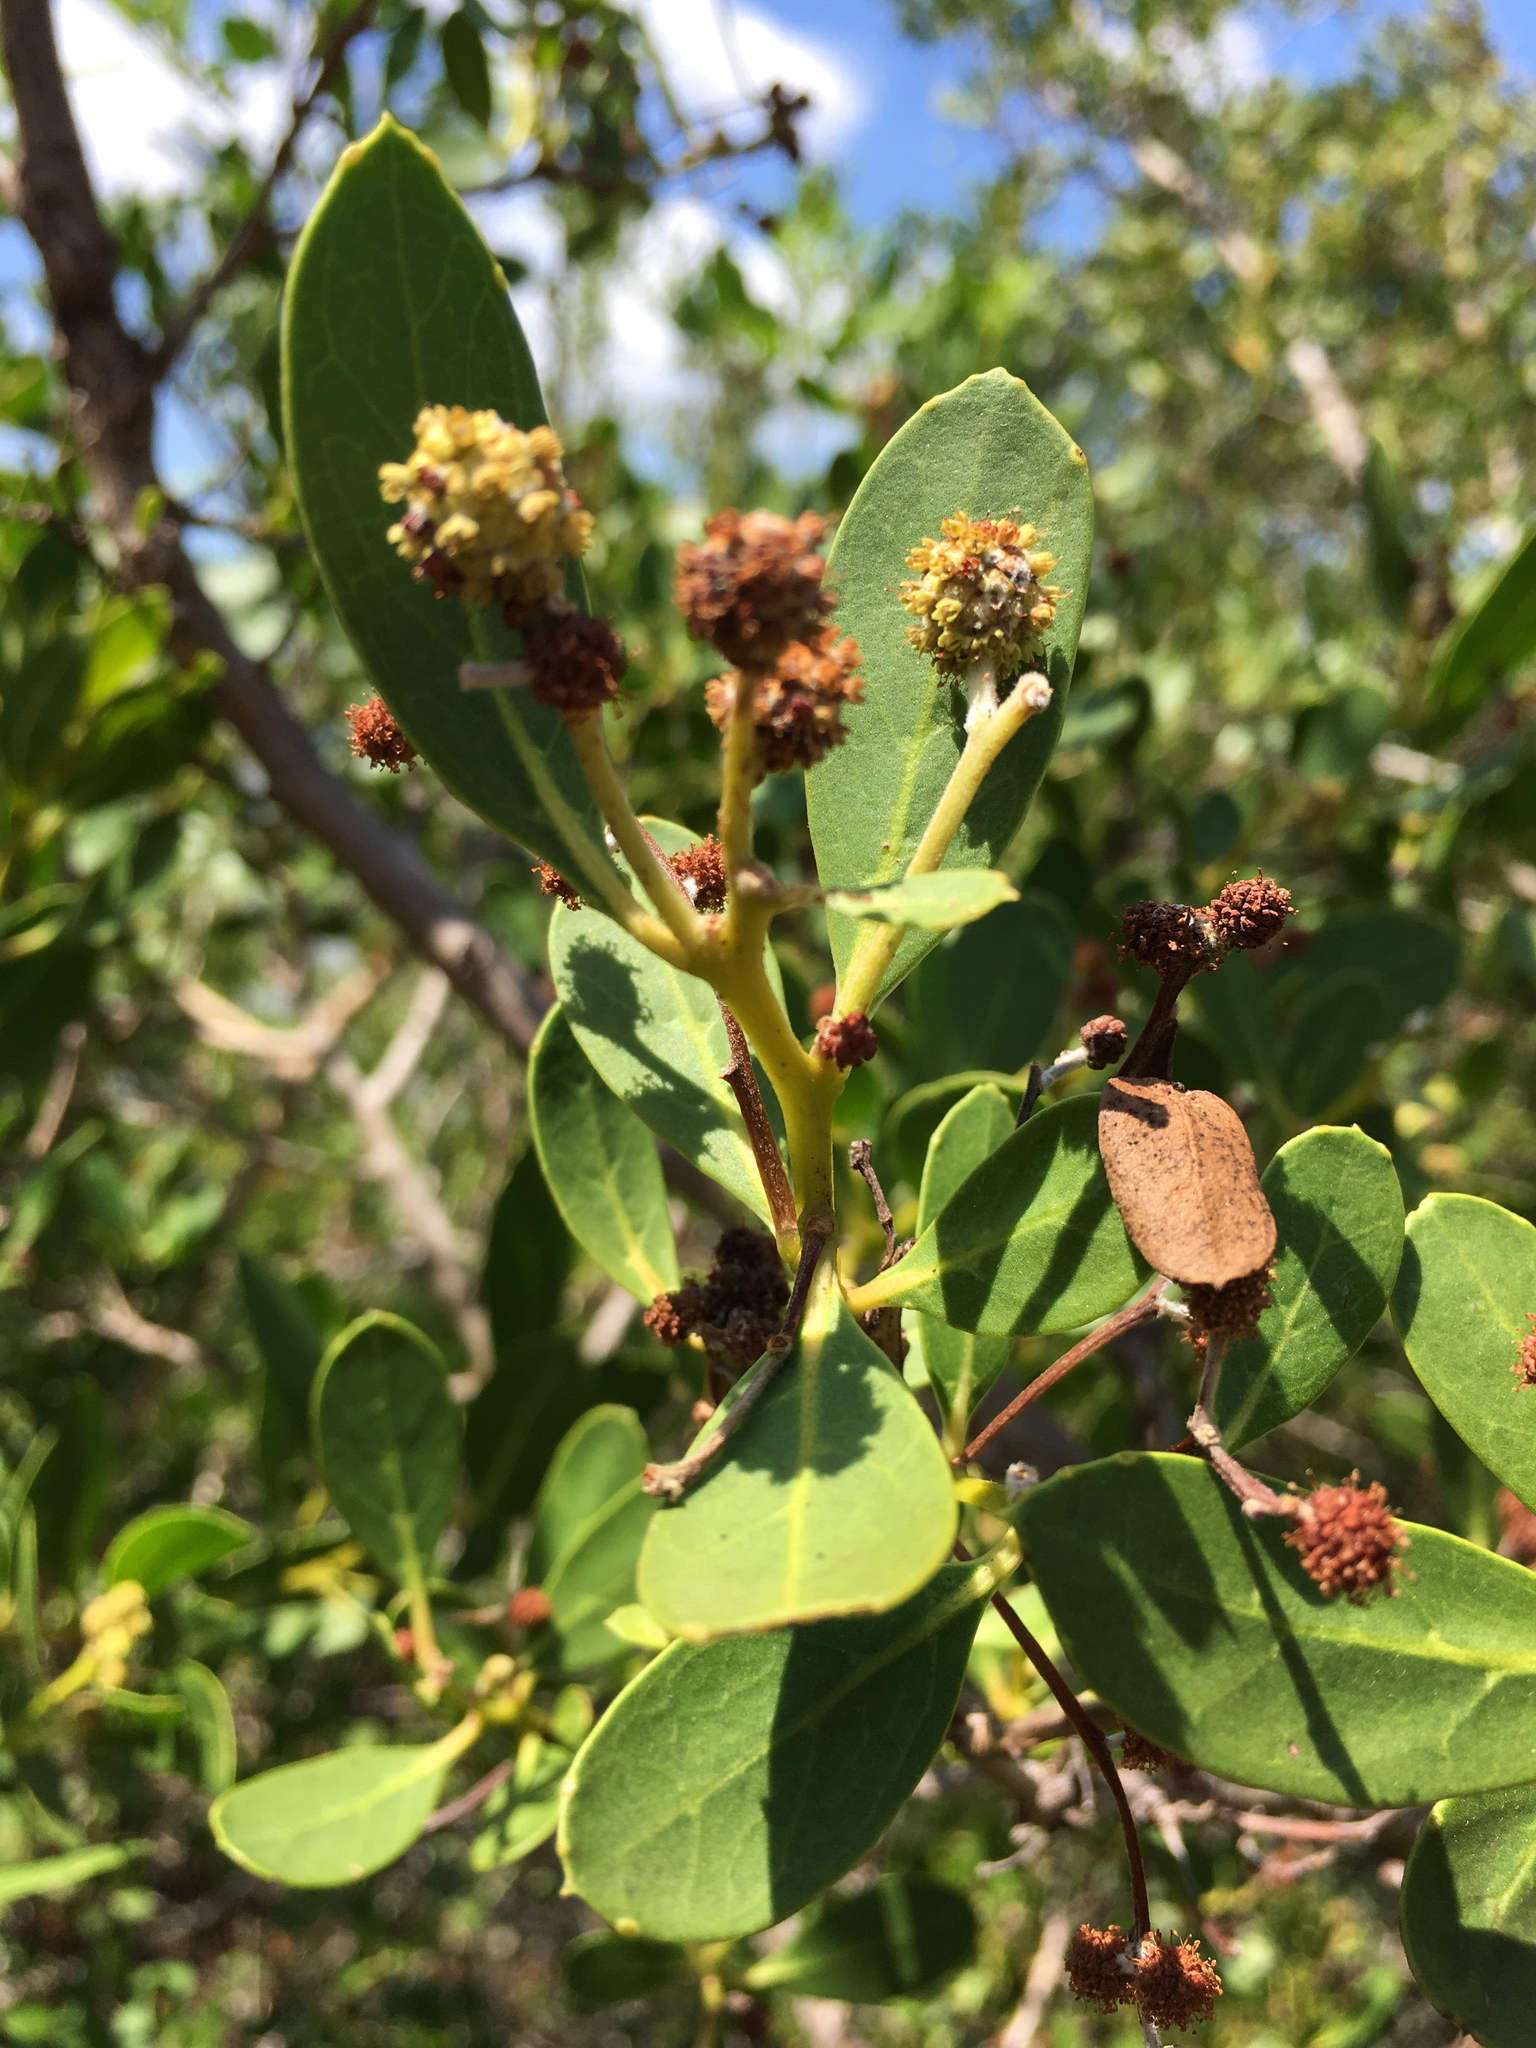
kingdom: Plantae
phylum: Tracheophyta
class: Magnoliopsida
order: Myrtales
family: Combretaceae
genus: Conocarpus
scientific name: Conocarpus erectus
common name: Button mangrove
